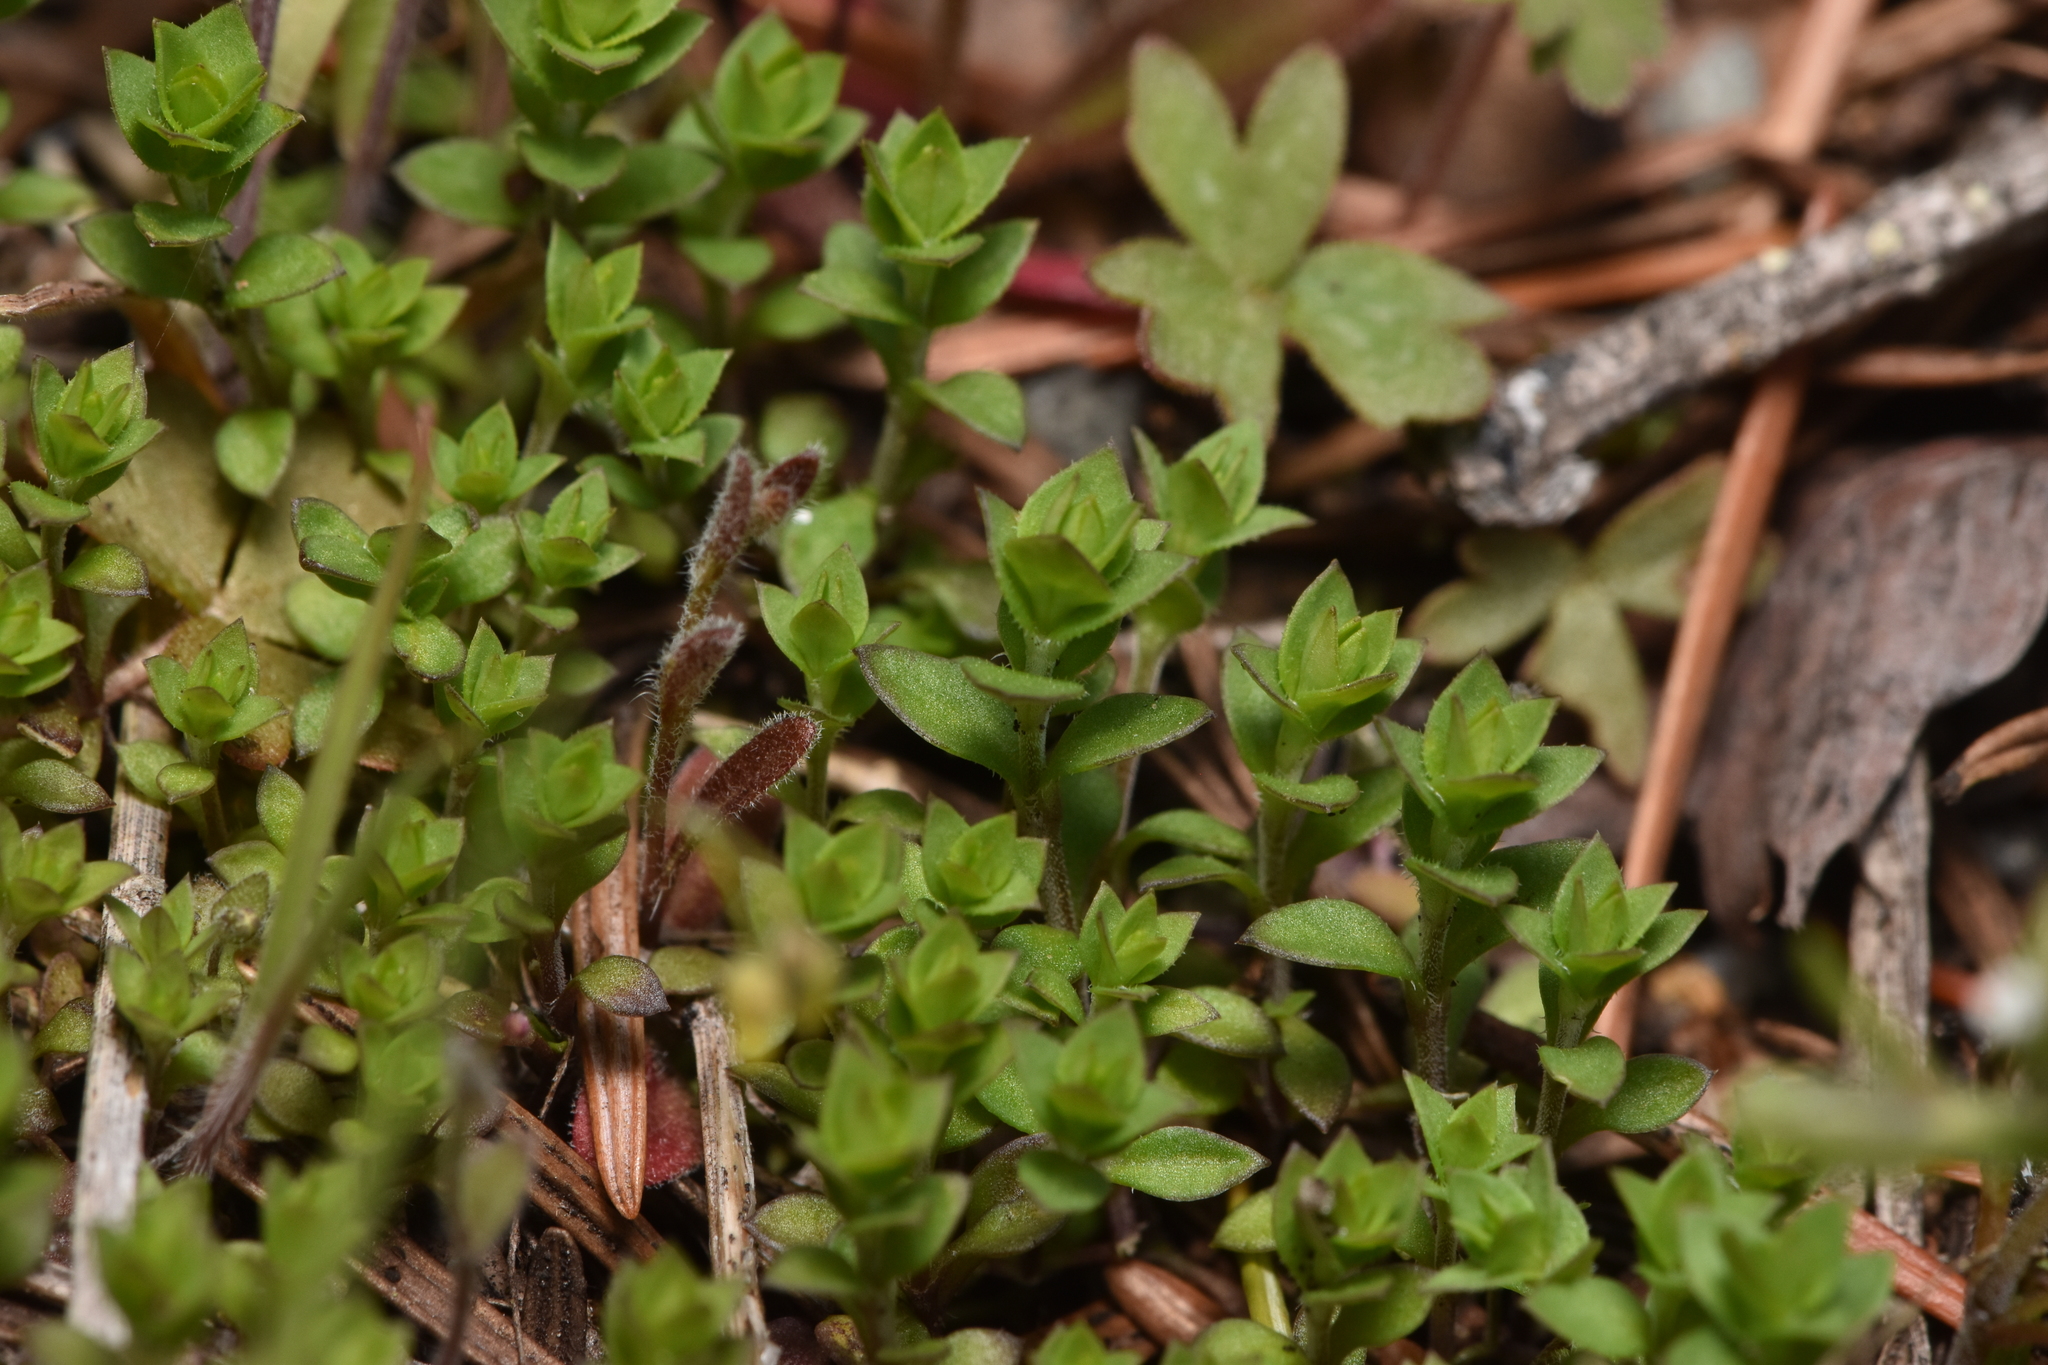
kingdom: Plantae
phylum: Tracheophyta
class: Magnoliopsida
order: Caryophyllales
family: Caryophyllaceae
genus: Arenaria
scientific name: Arenaria serpyllifolia
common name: Thyme-leaved sandwort
